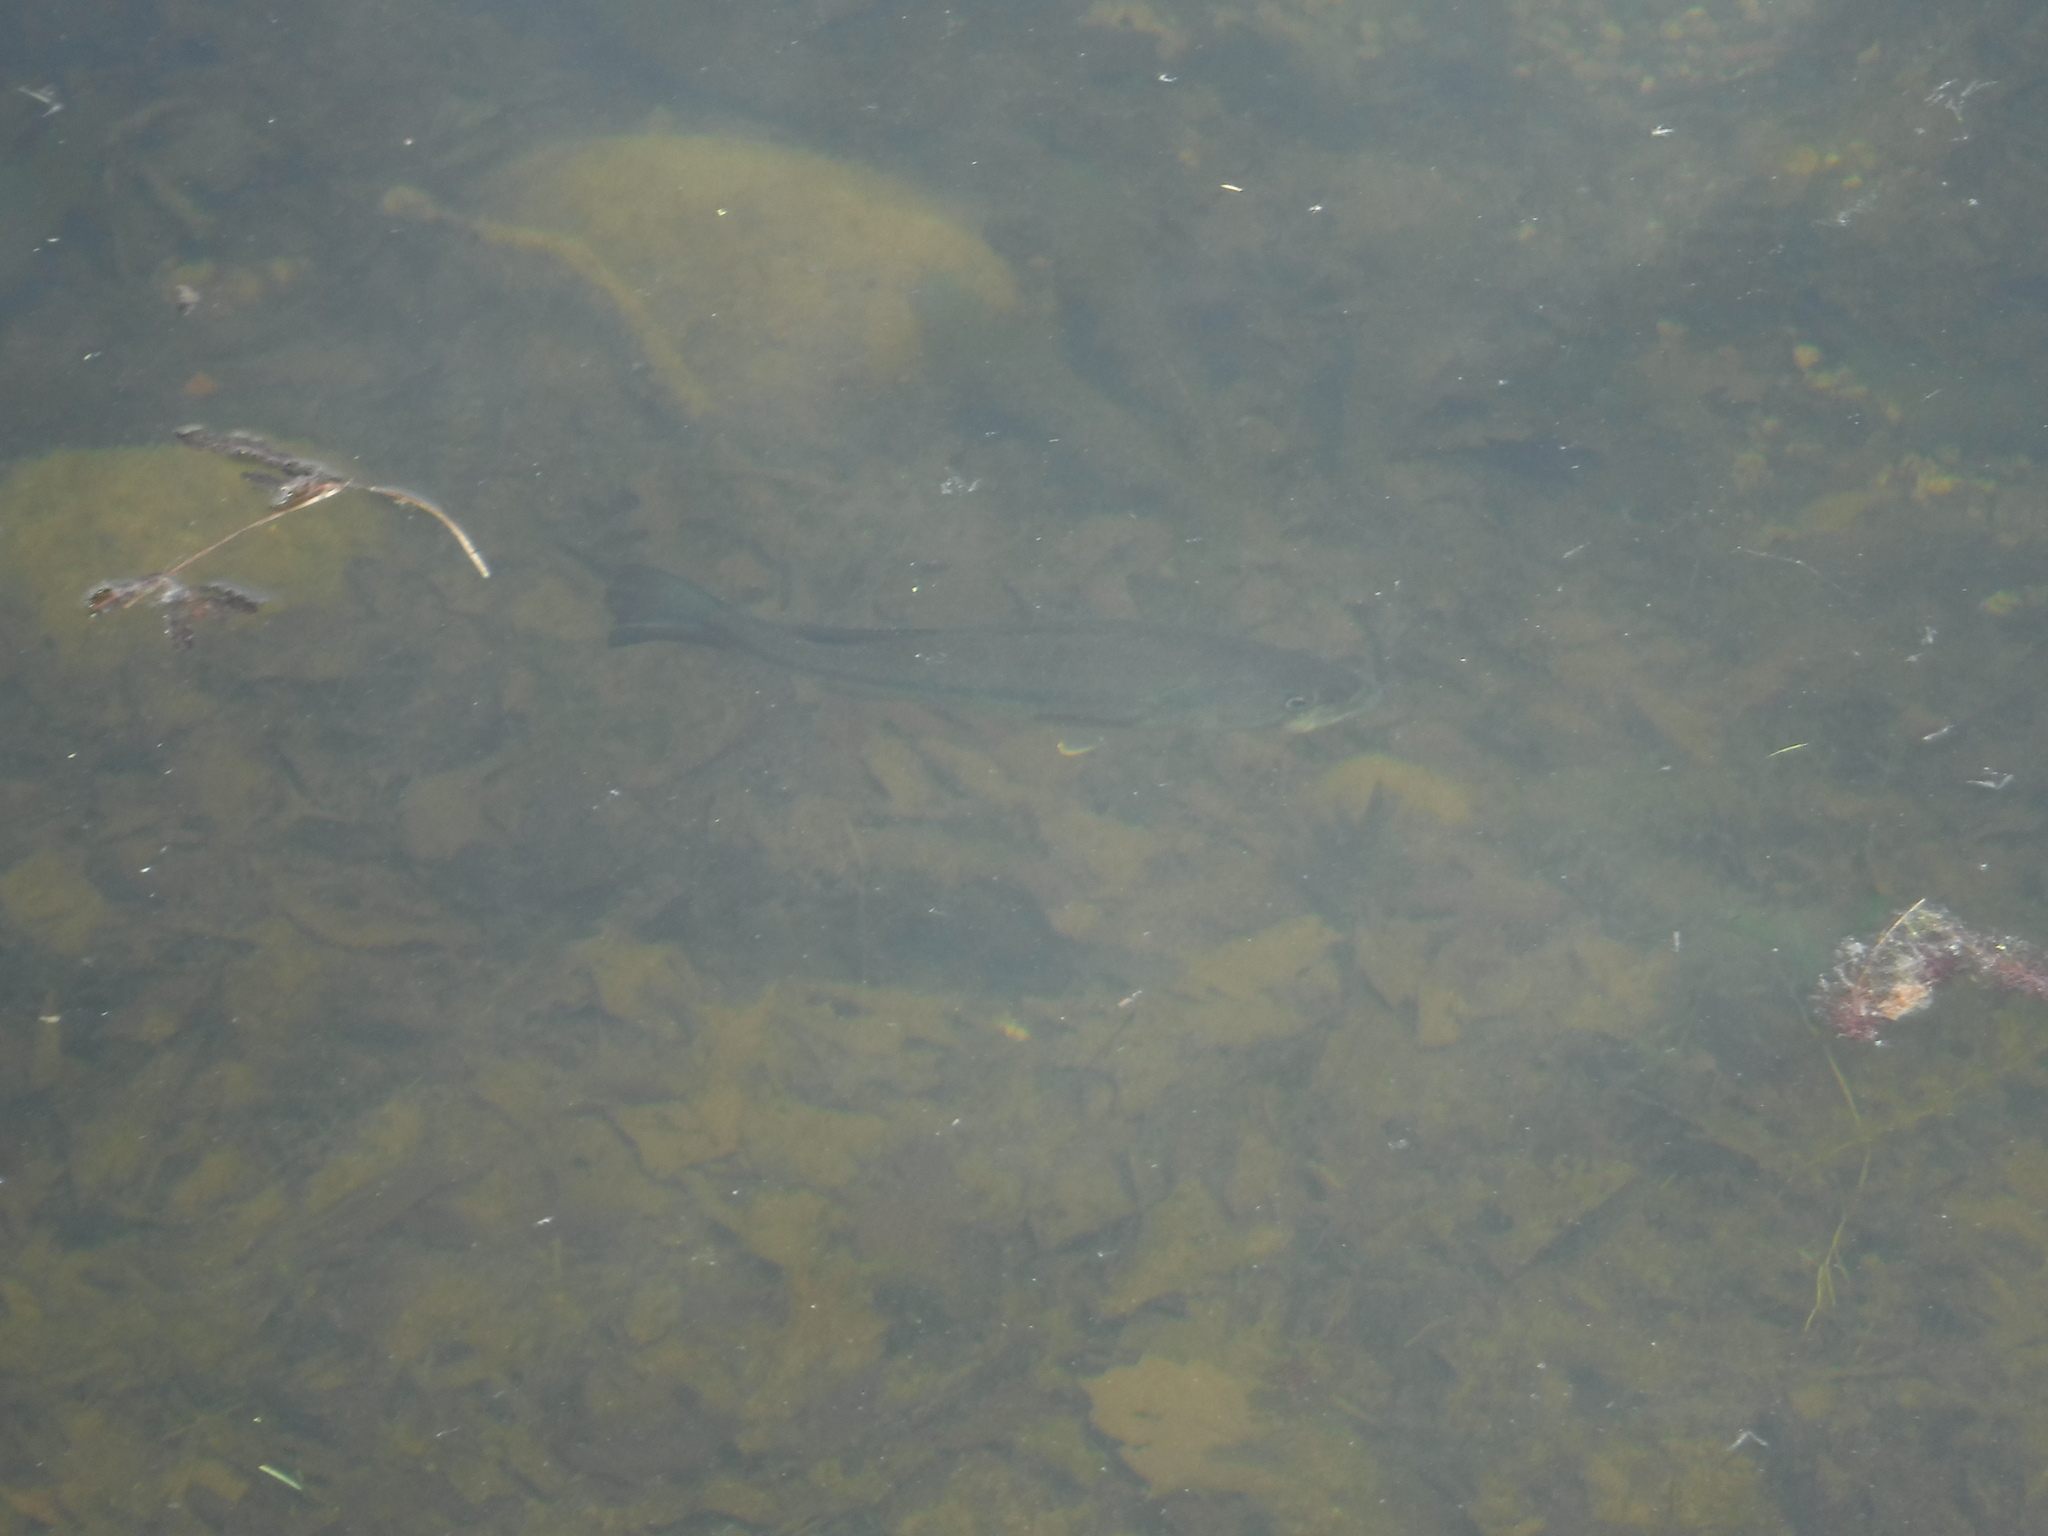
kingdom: Animalia
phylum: Chordata
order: Perciformes
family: Centrarchidae
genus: Micropterus
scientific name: Micropterus
